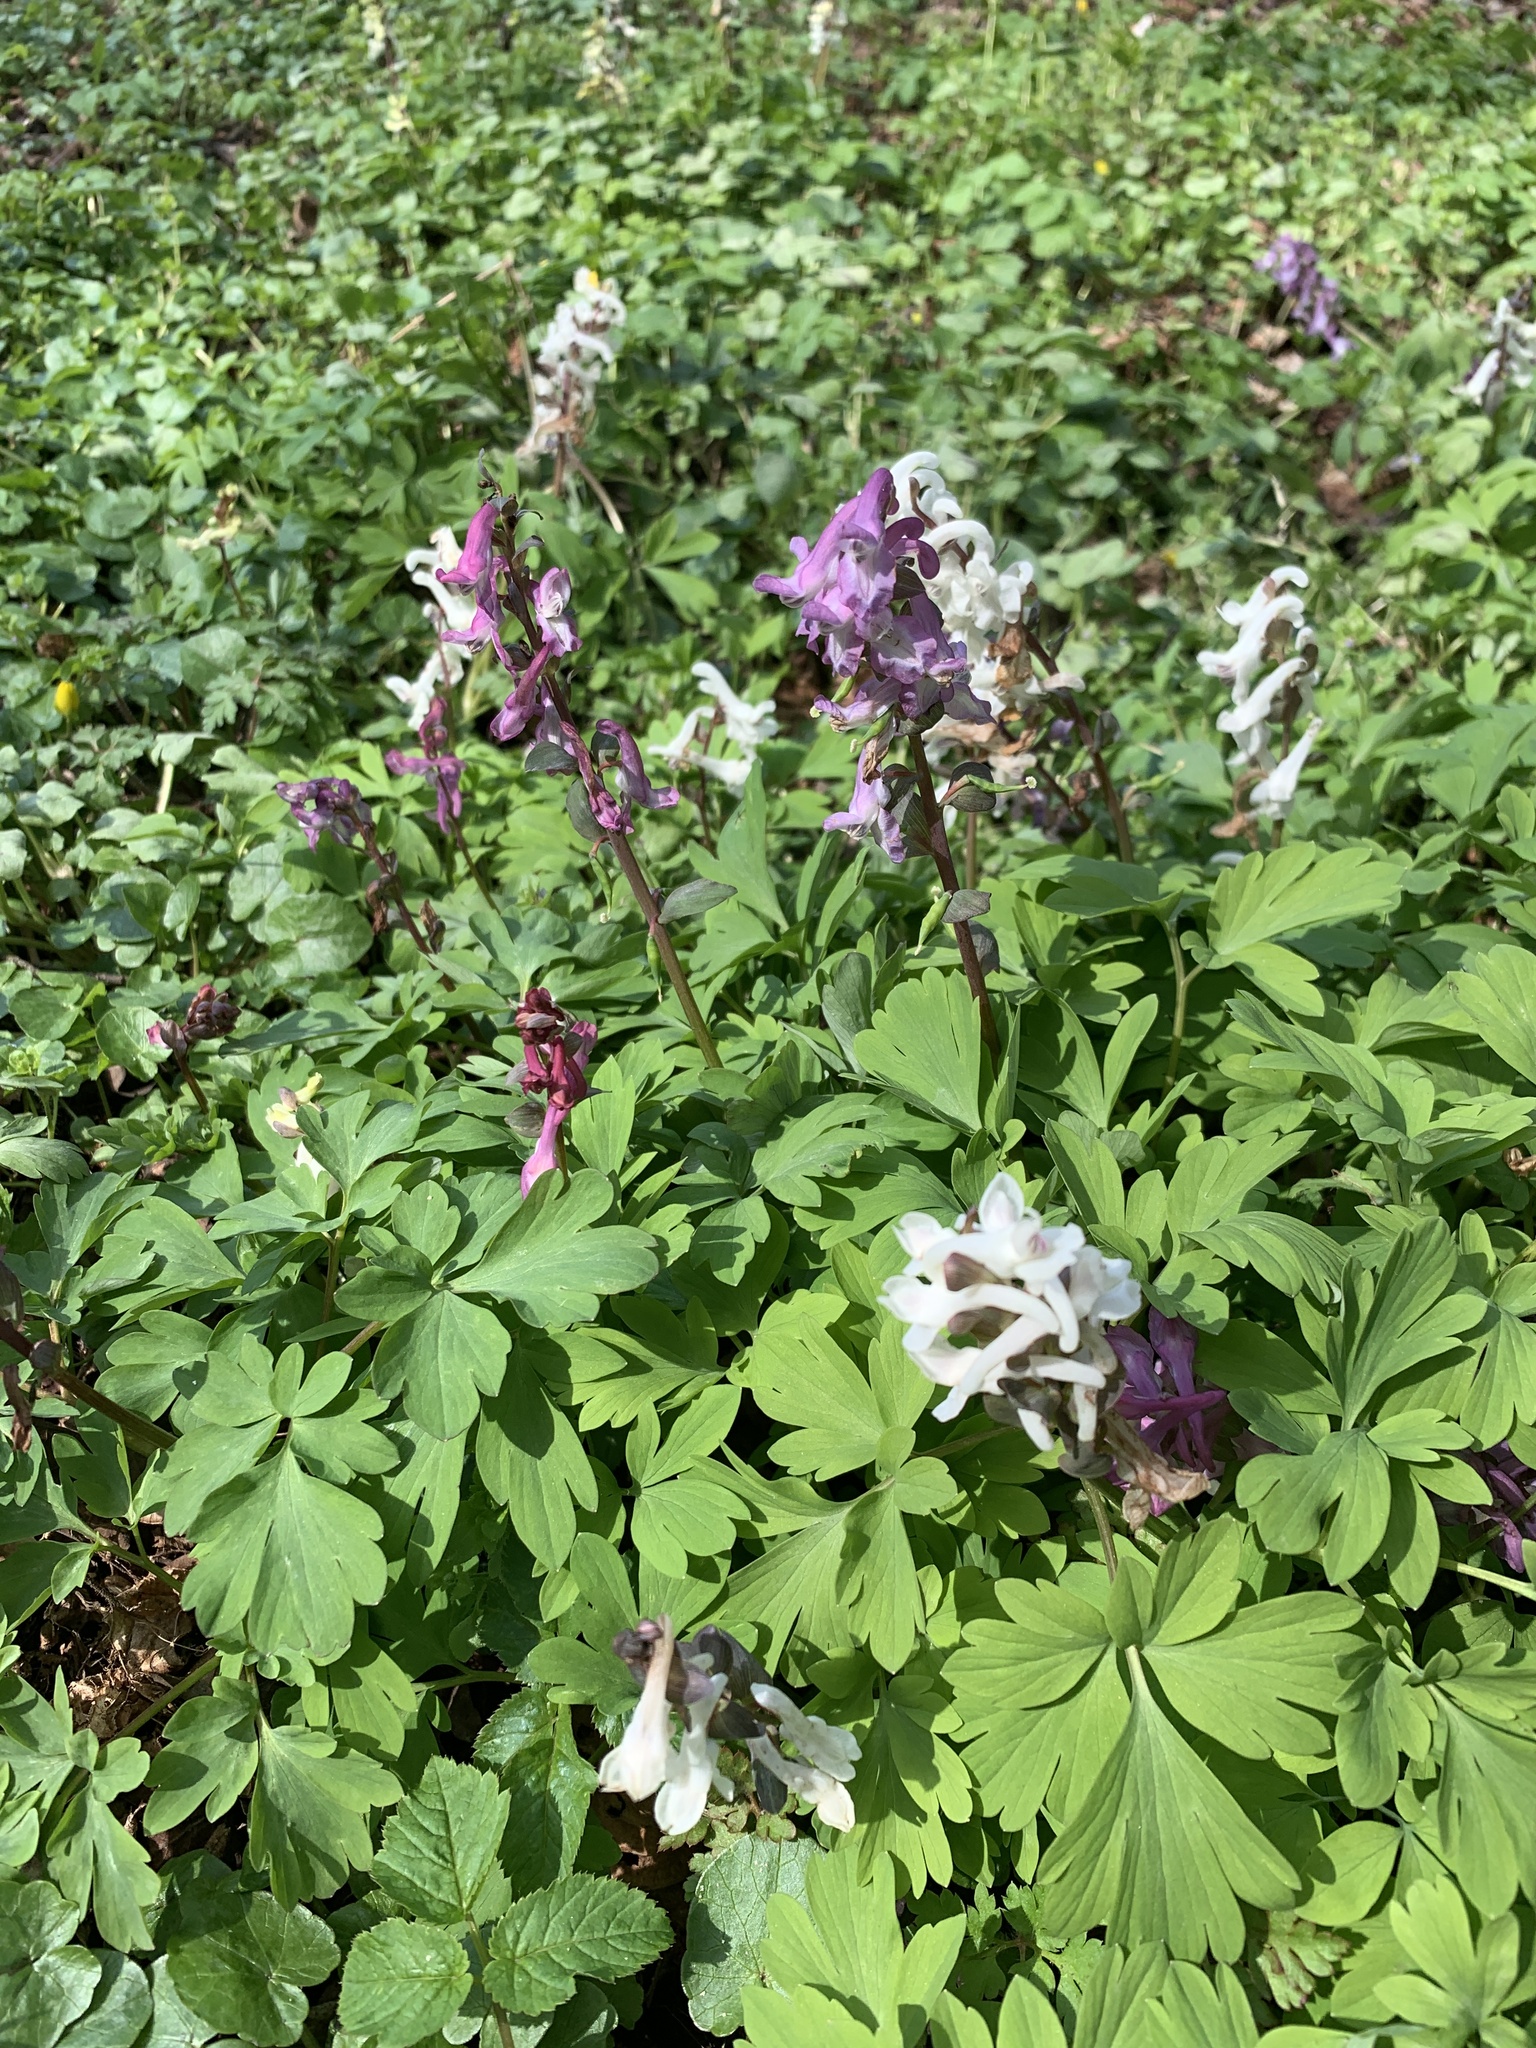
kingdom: Plantae
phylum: Tracheophyta
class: Magnoliopsida
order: Ranunculales
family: Papaveraceae
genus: Corydalis
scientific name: Corydalis cava
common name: Hollowroot
